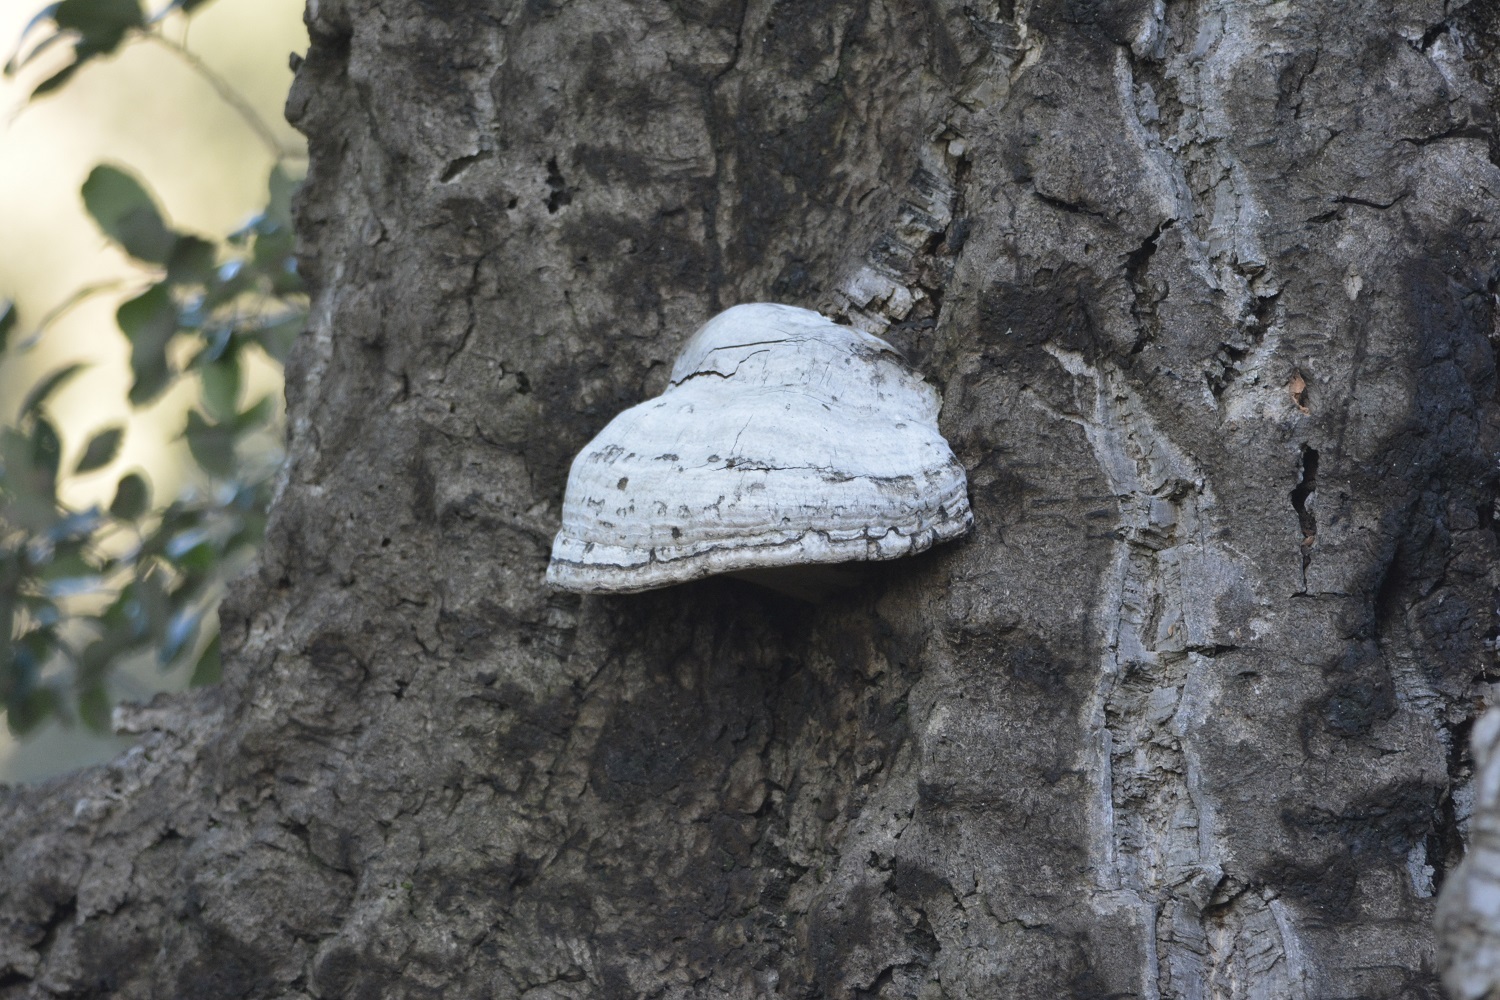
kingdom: Fungi
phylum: Basidiomycota
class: Agaricomycetes
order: Polyporales
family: Polyporaceae
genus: Fomes
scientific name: Fomes fomentarius
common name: Hoof fungus
